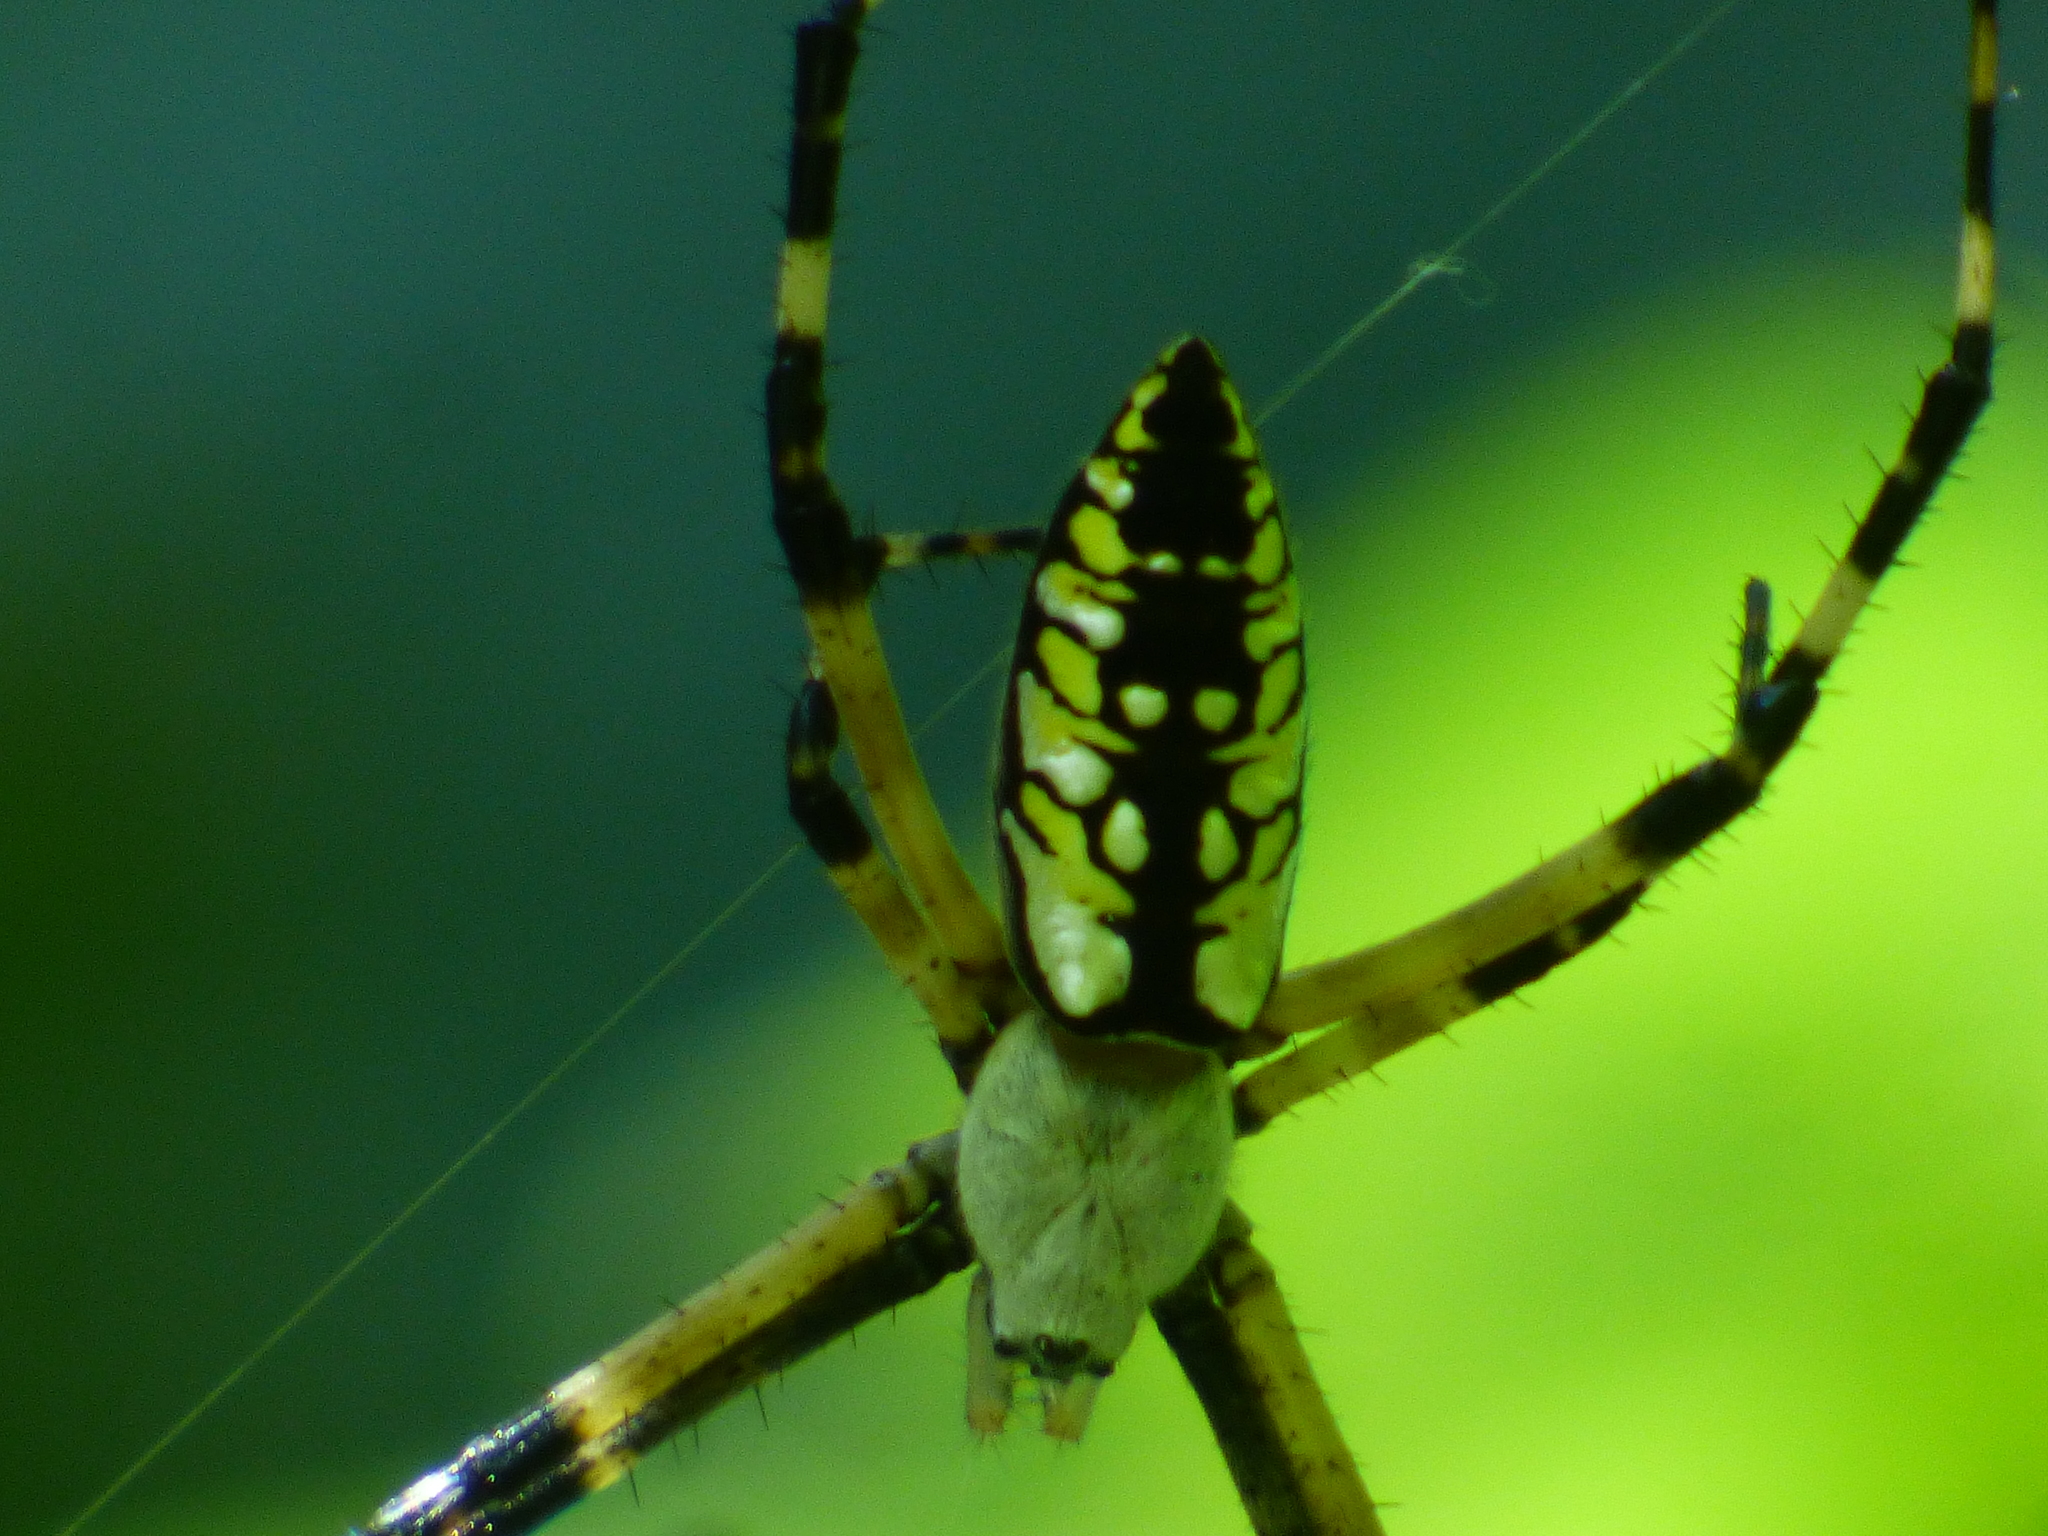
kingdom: Animalia
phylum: Arthropoda
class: Arachnida
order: Araneae
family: Araneidae
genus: Argiope
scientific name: Argiope aurantia
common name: Orb weavers
